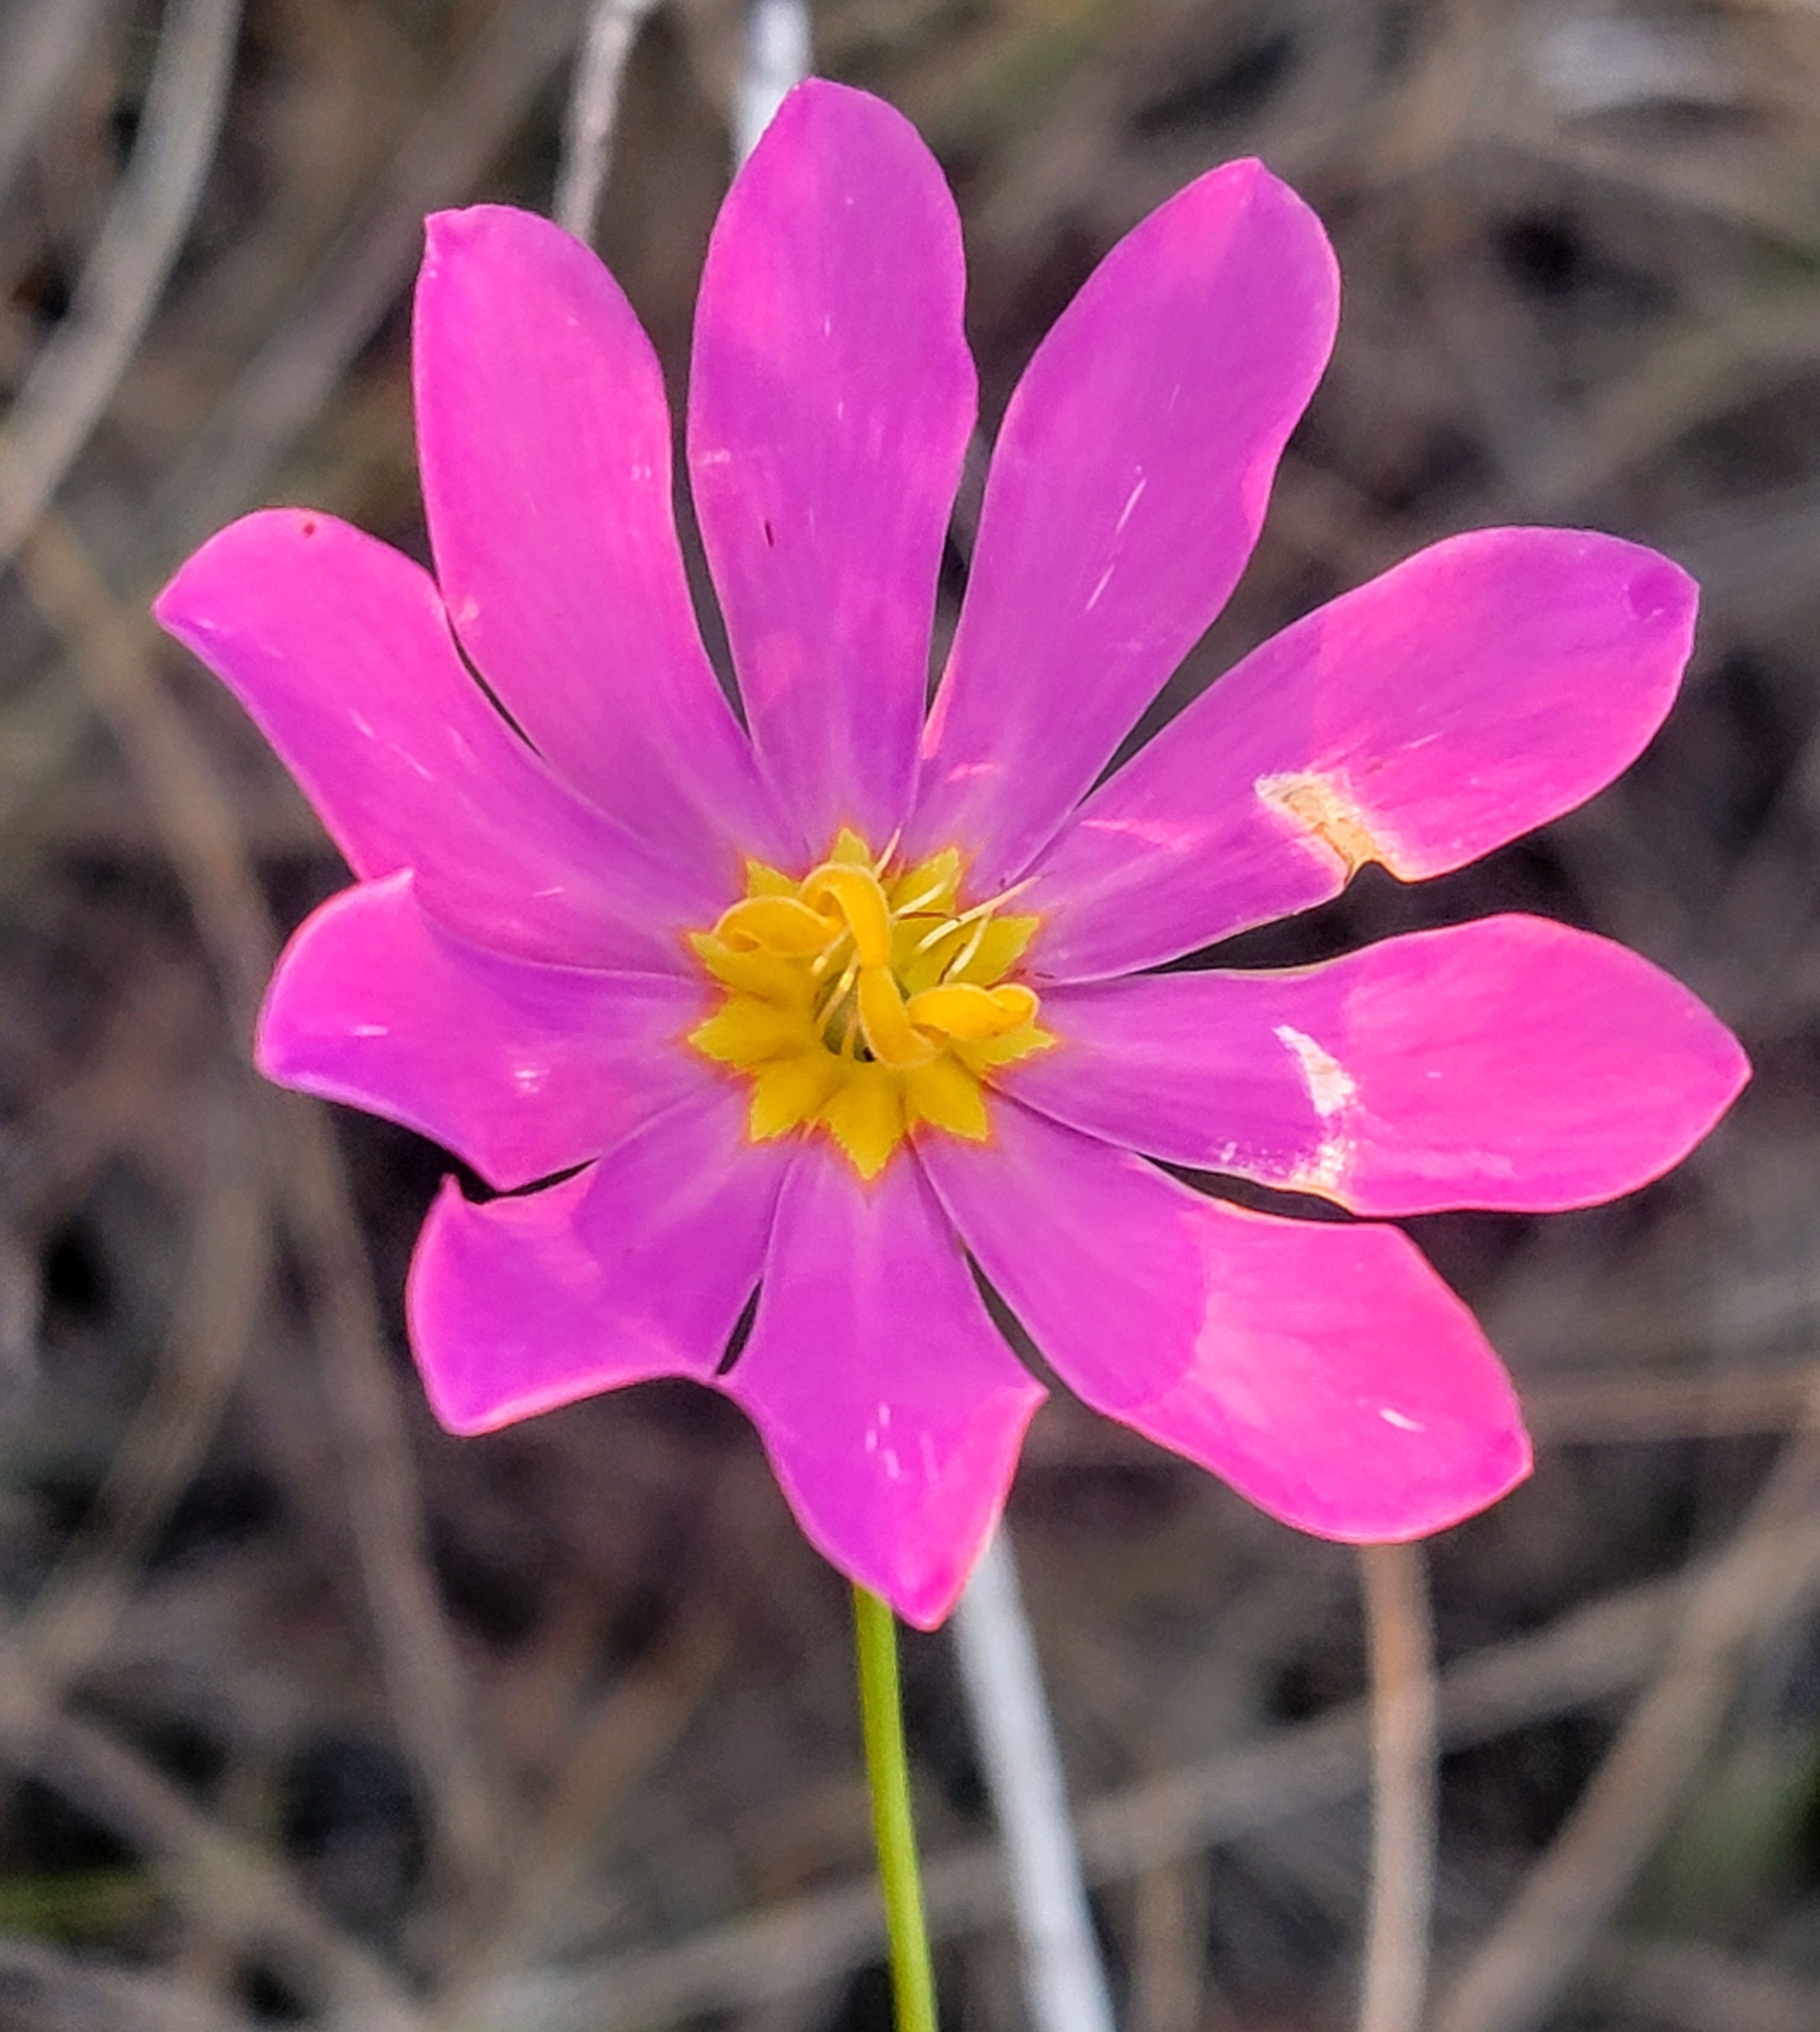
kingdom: Plantae
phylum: Tracheophyta
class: Magnoliopsida
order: Gentianales
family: Gentianaceae
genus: Sabatia
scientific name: Sabatia decandra
